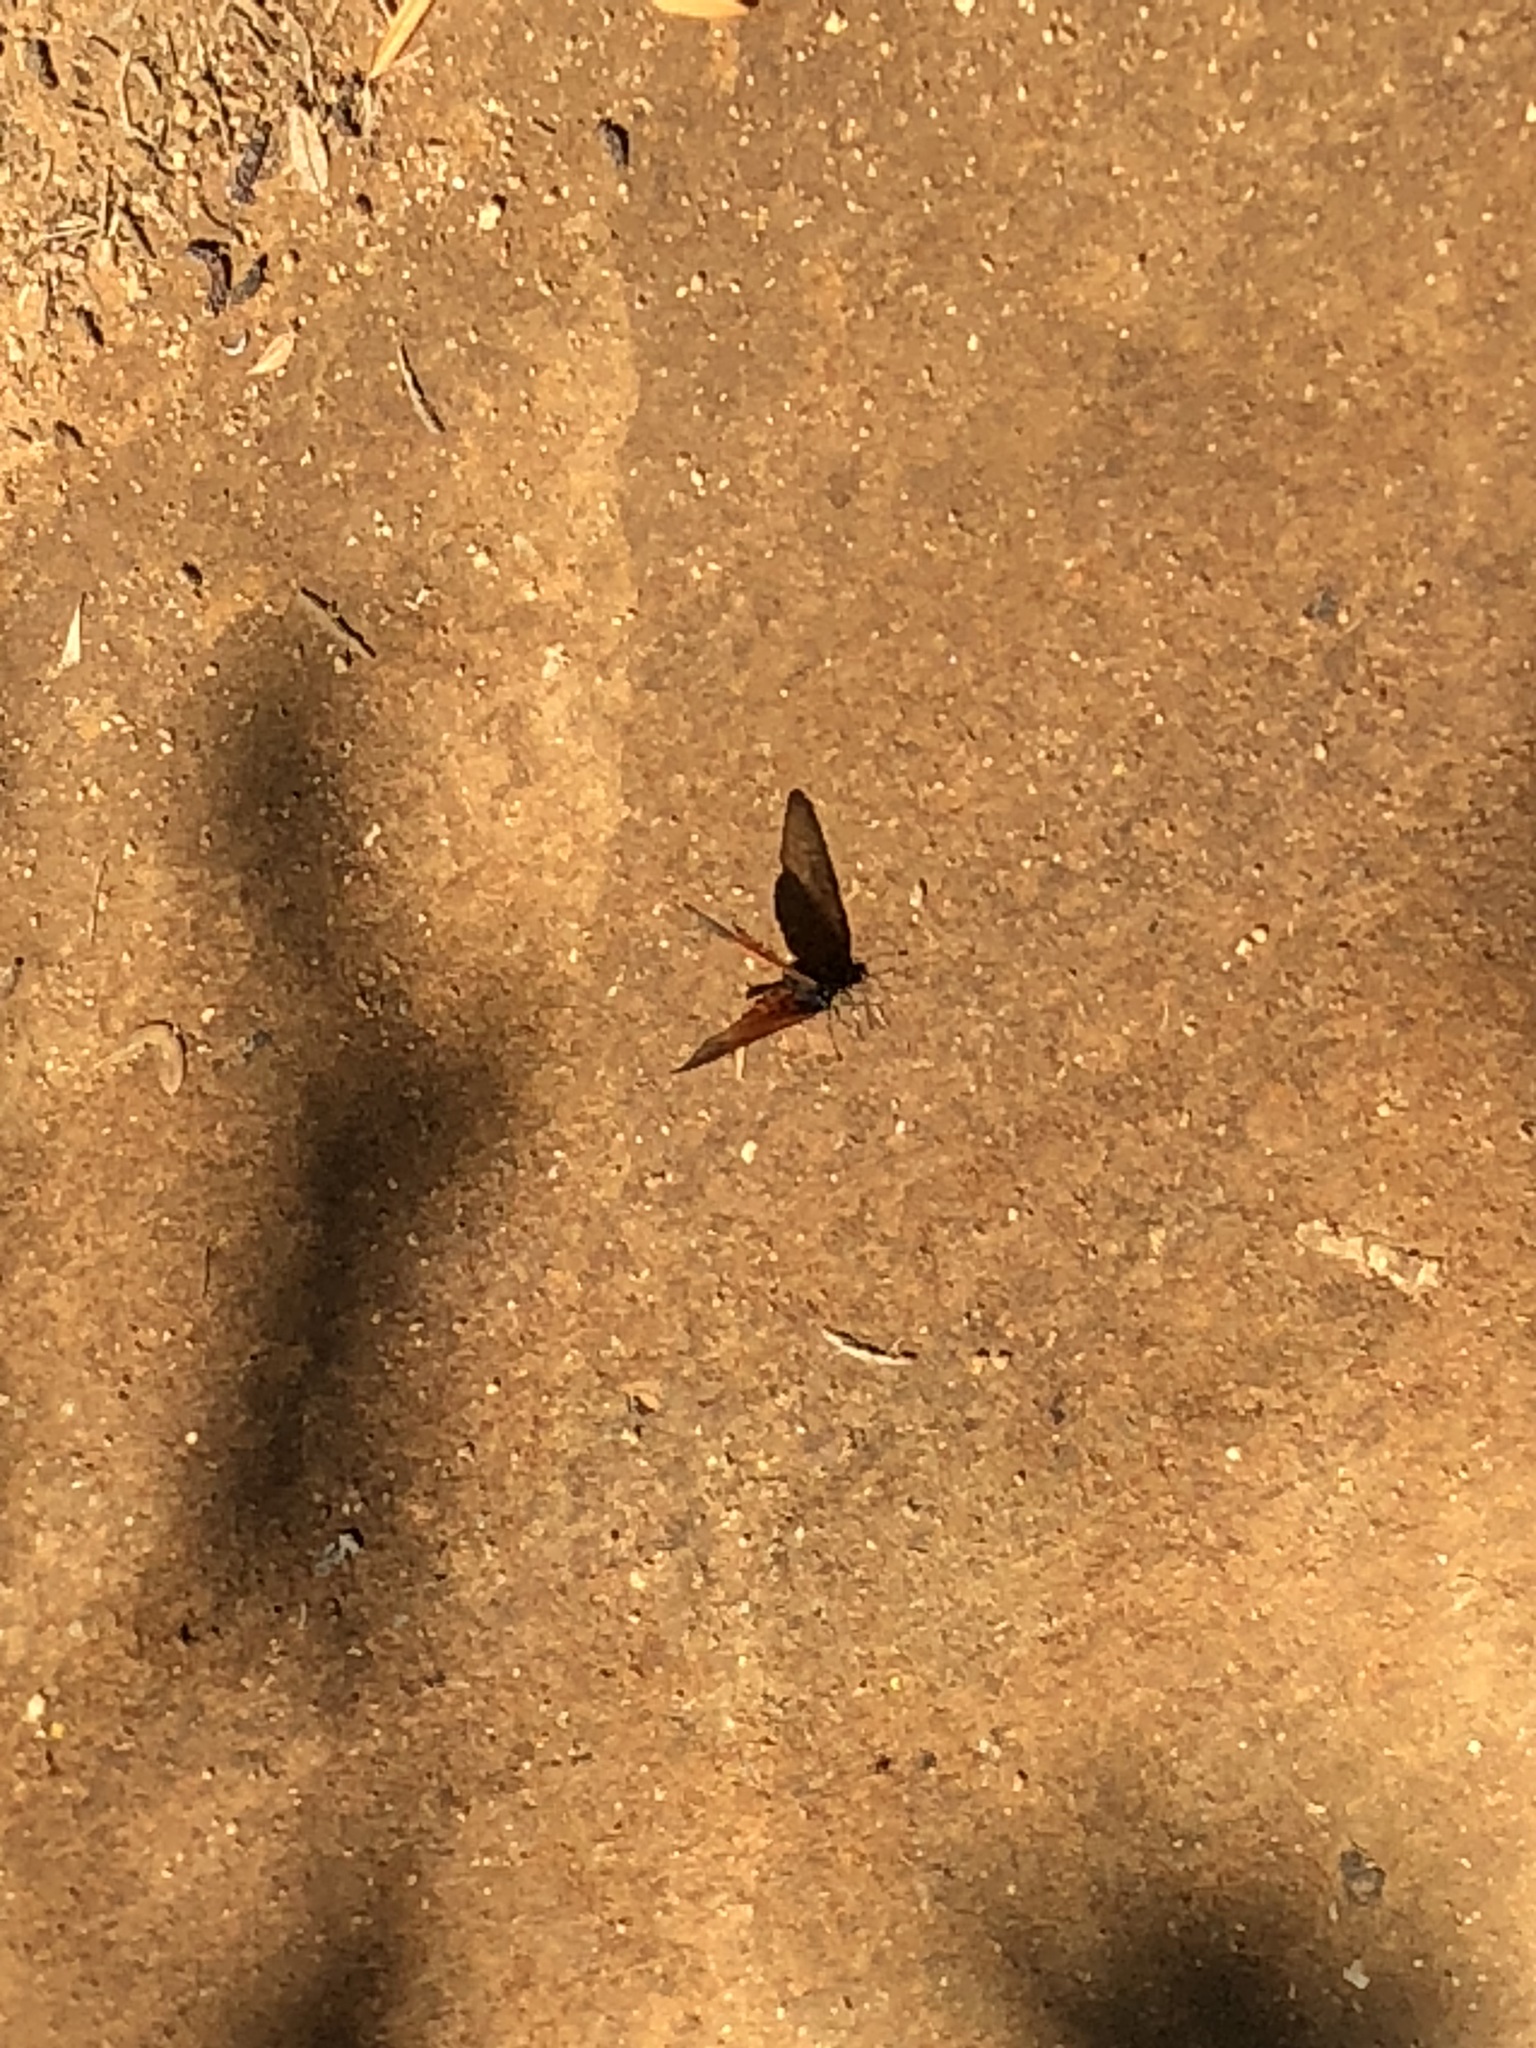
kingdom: Animalia
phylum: Arthropoda
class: Insecta
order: Lepidoptera
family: Nymphalidae
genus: Acraea
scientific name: Acraea horta
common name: Garden acraea
